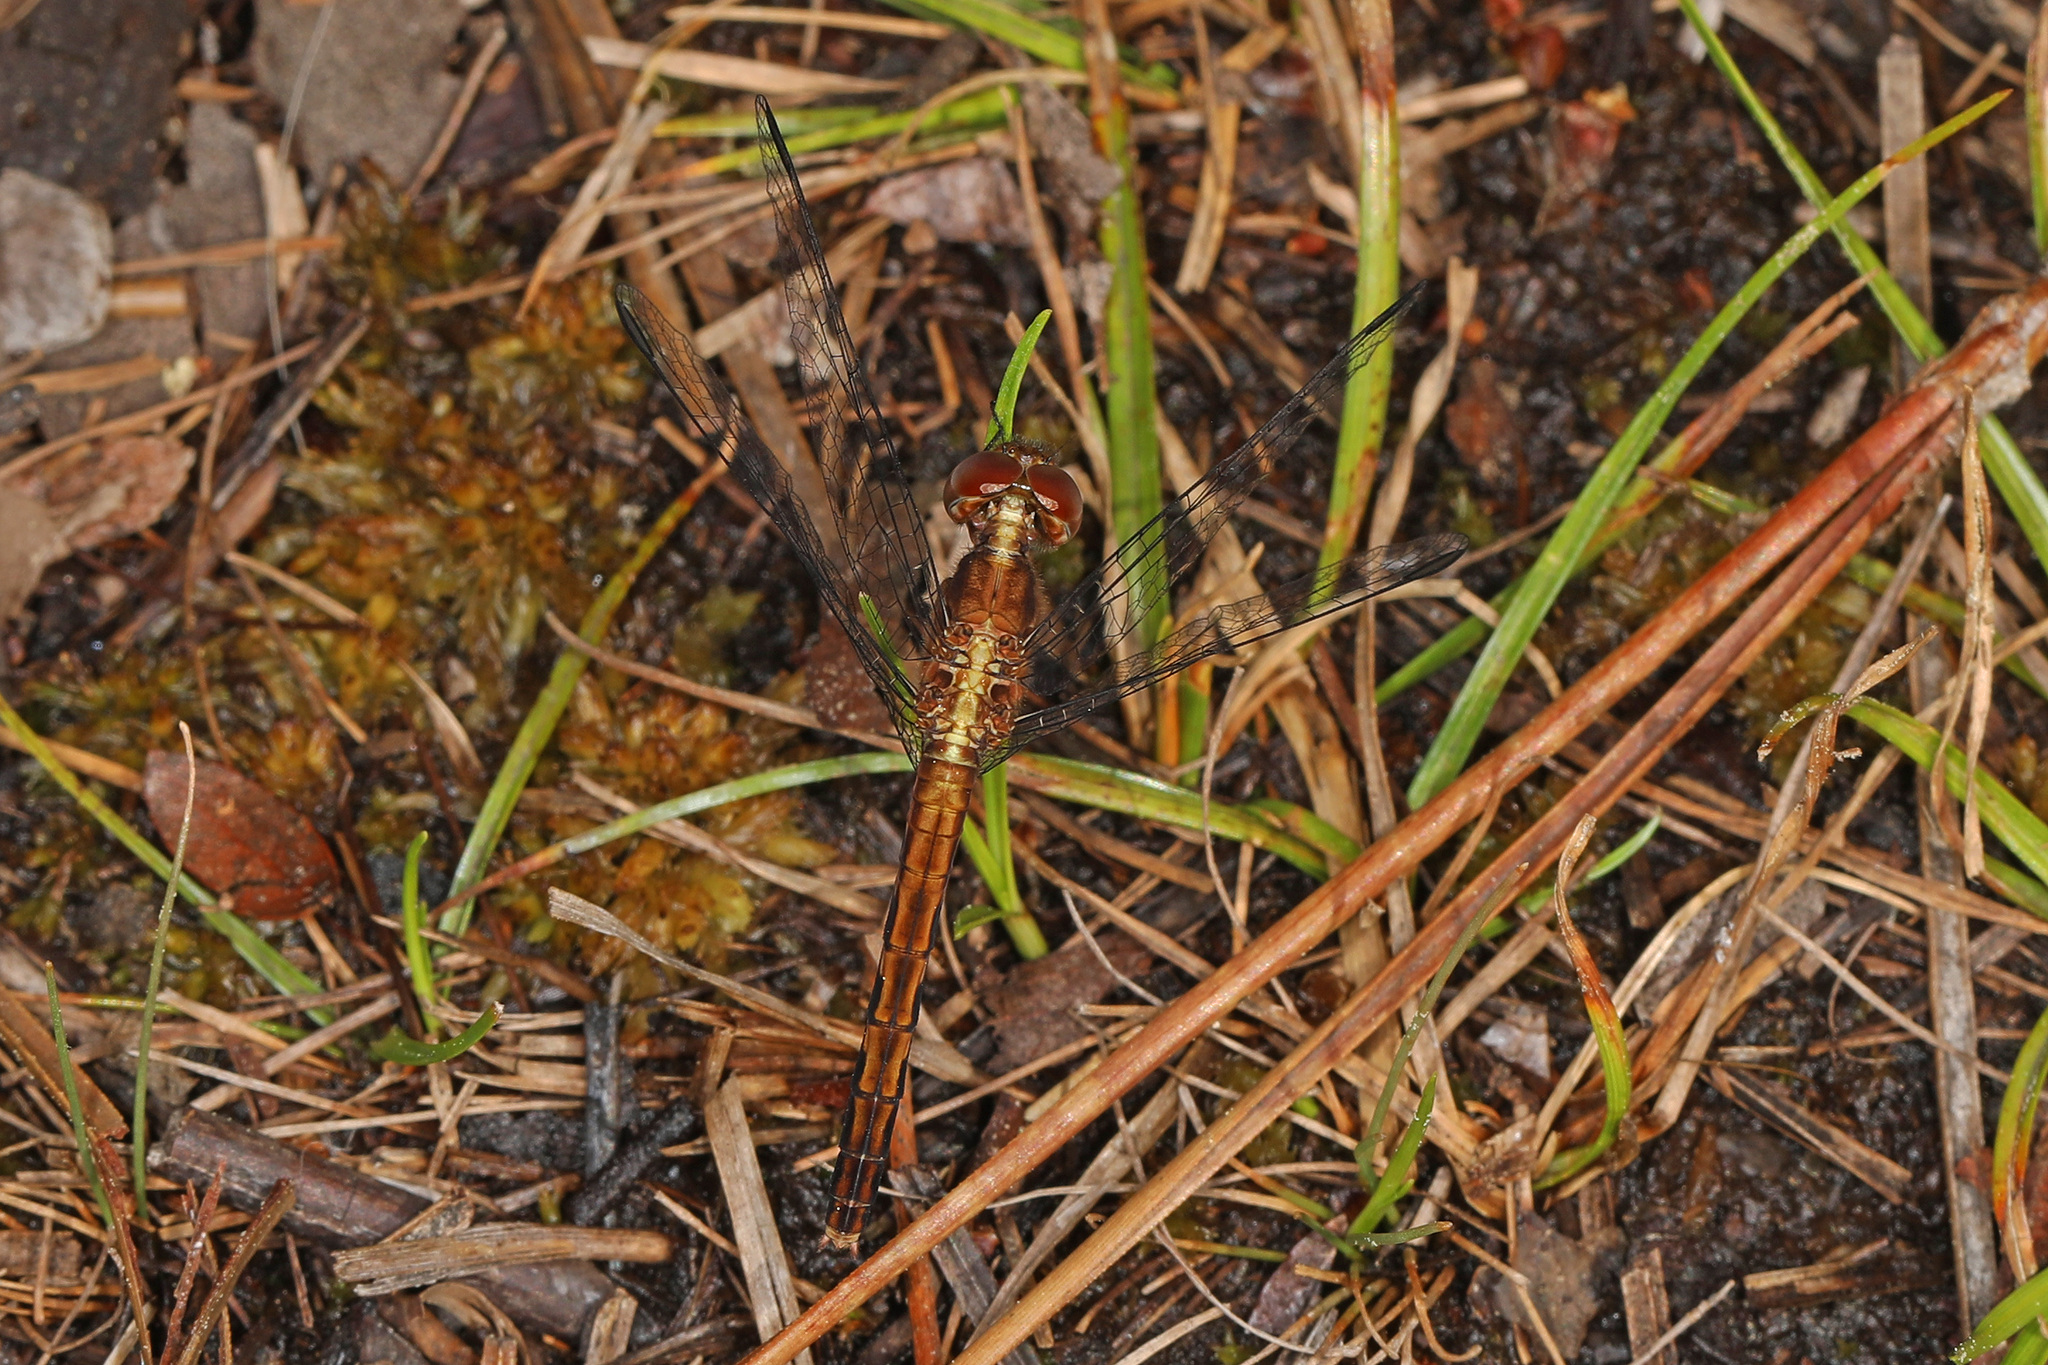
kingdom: Animalia
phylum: Arthropoda
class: Insecta
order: Odonata
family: Libellulidae
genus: Erythrodiplax
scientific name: Erythrodiplax minuscula
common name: Little blue dragonlet
